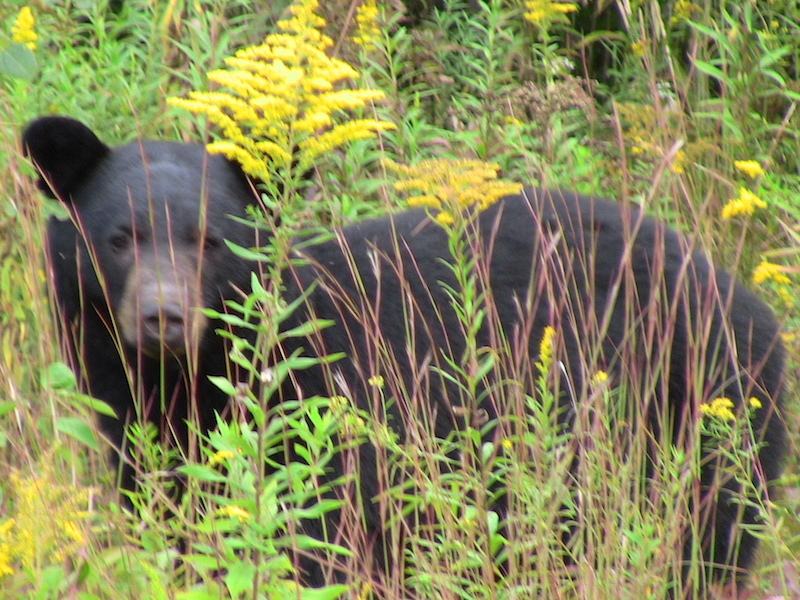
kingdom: Animalia
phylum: Chordata
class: Mammalia
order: Carnivora
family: Ursidae
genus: Ursus
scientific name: Ursus americanus
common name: American black bear
